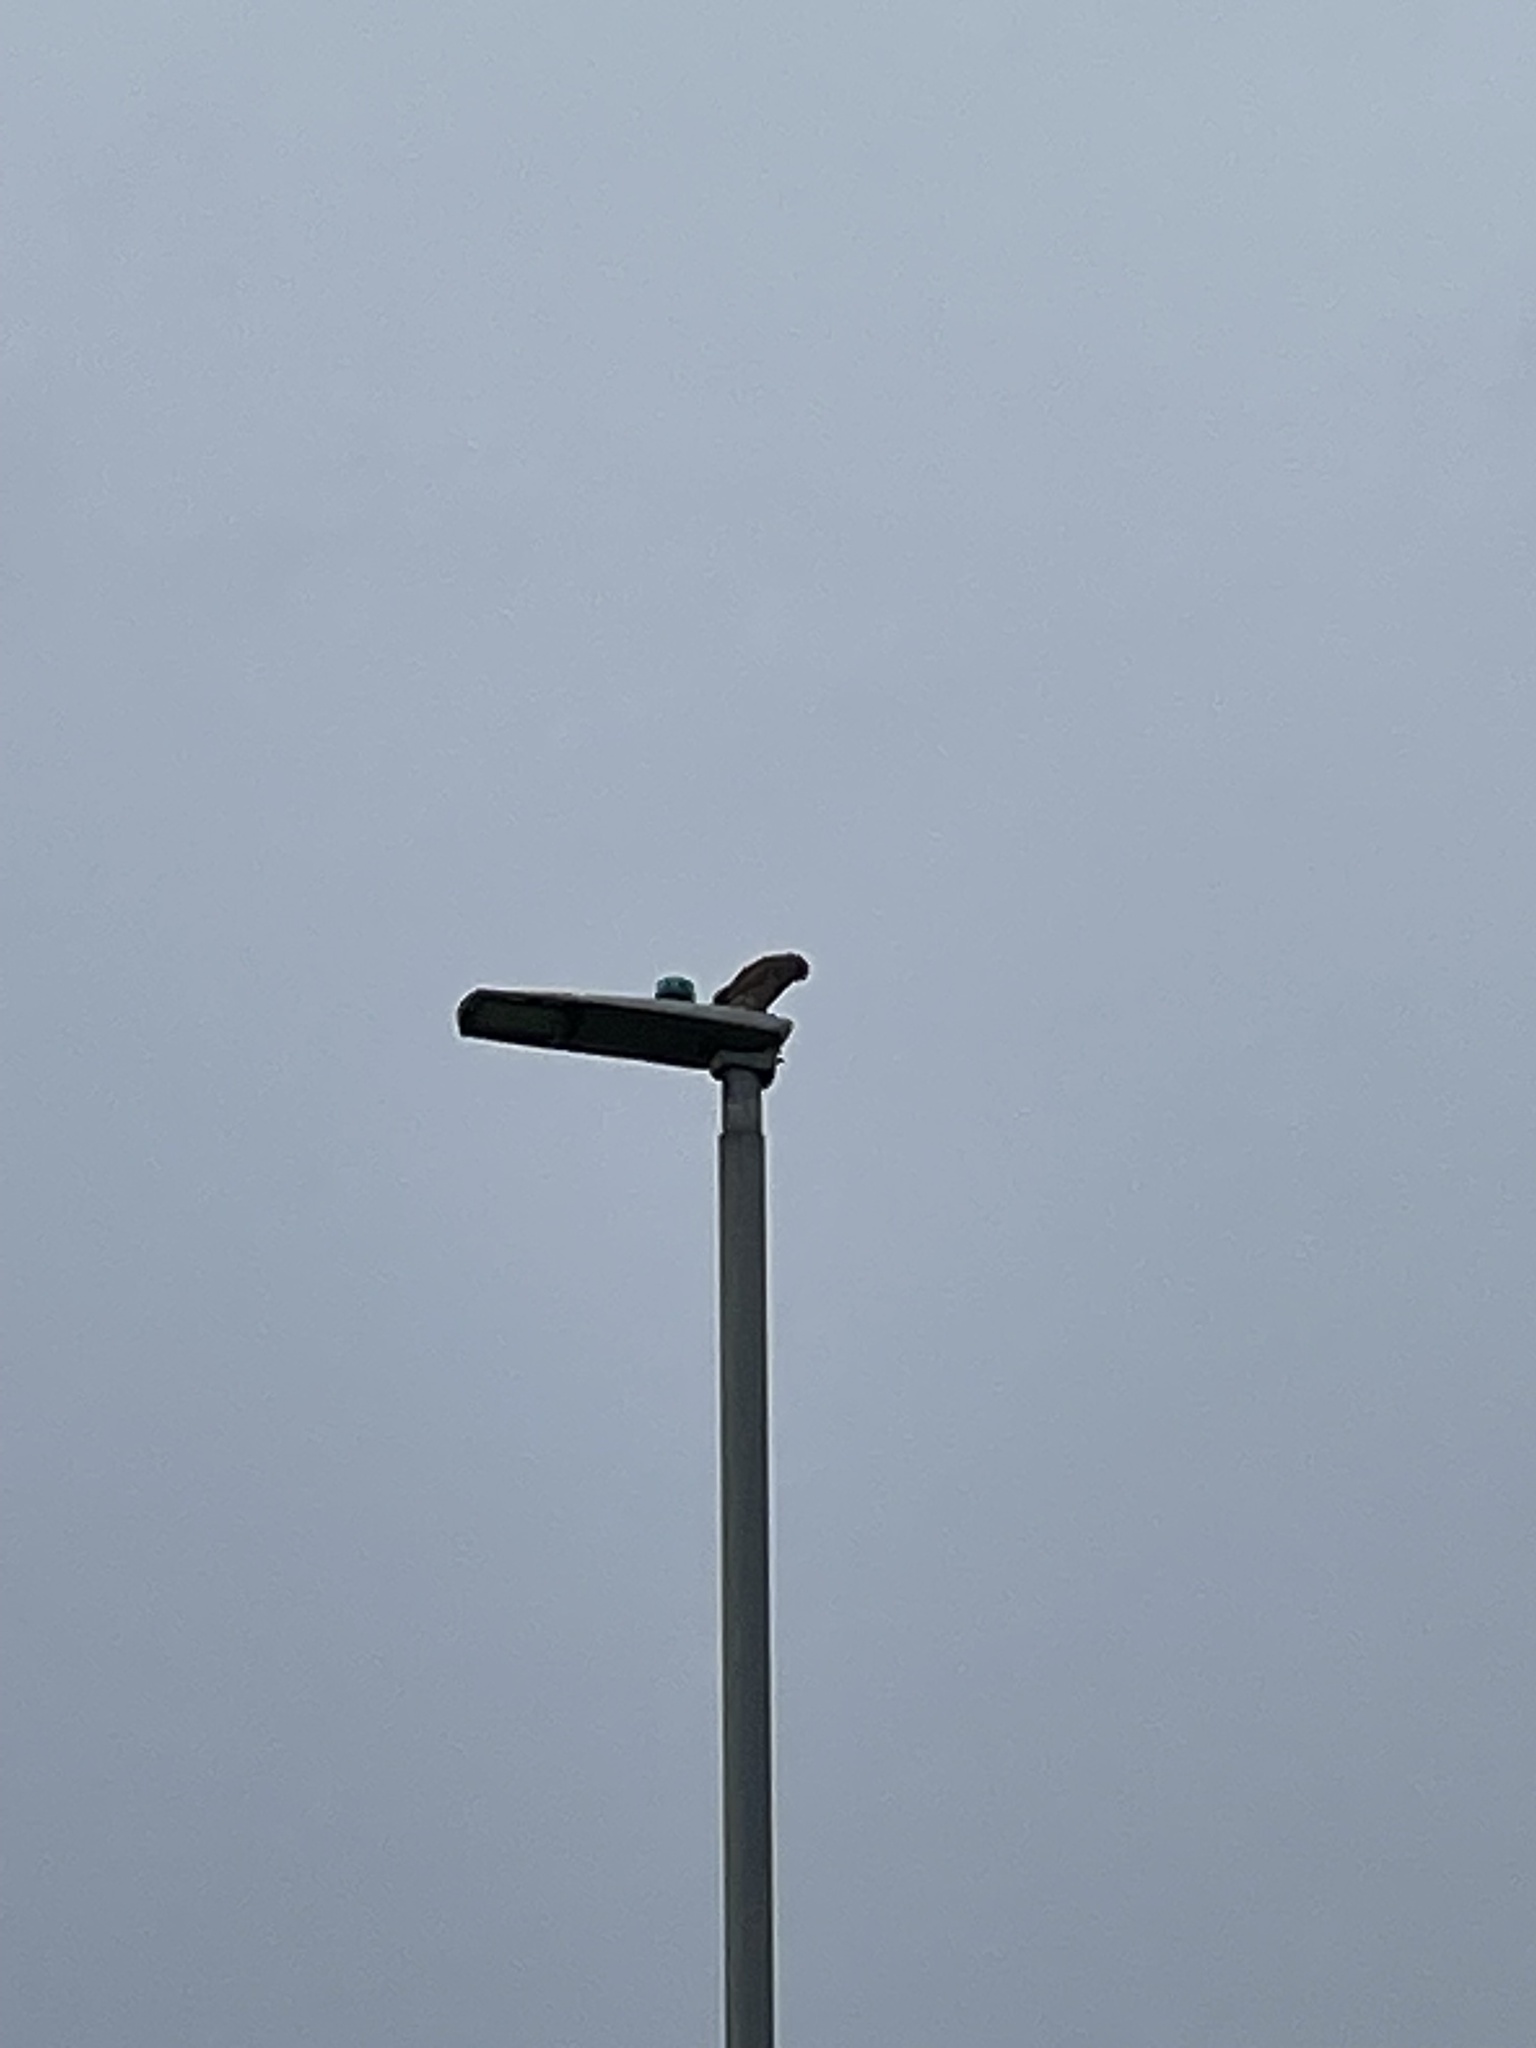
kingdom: Animalia
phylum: Chordata
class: Aves
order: Falconiformes
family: Falconidae
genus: Falco
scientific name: Falco tinnunculus
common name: Common kestrel
